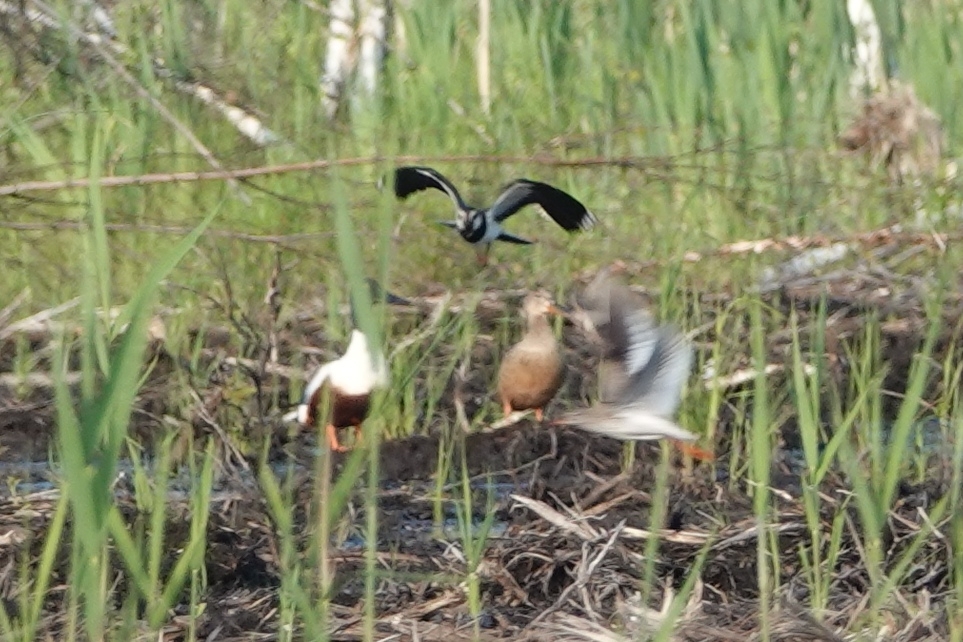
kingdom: Animalia
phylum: Chordata
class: Aves
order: Anseriformes
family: Anatidae
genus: Spatula
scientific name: Spatula clypeata
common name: Northern shoveler
